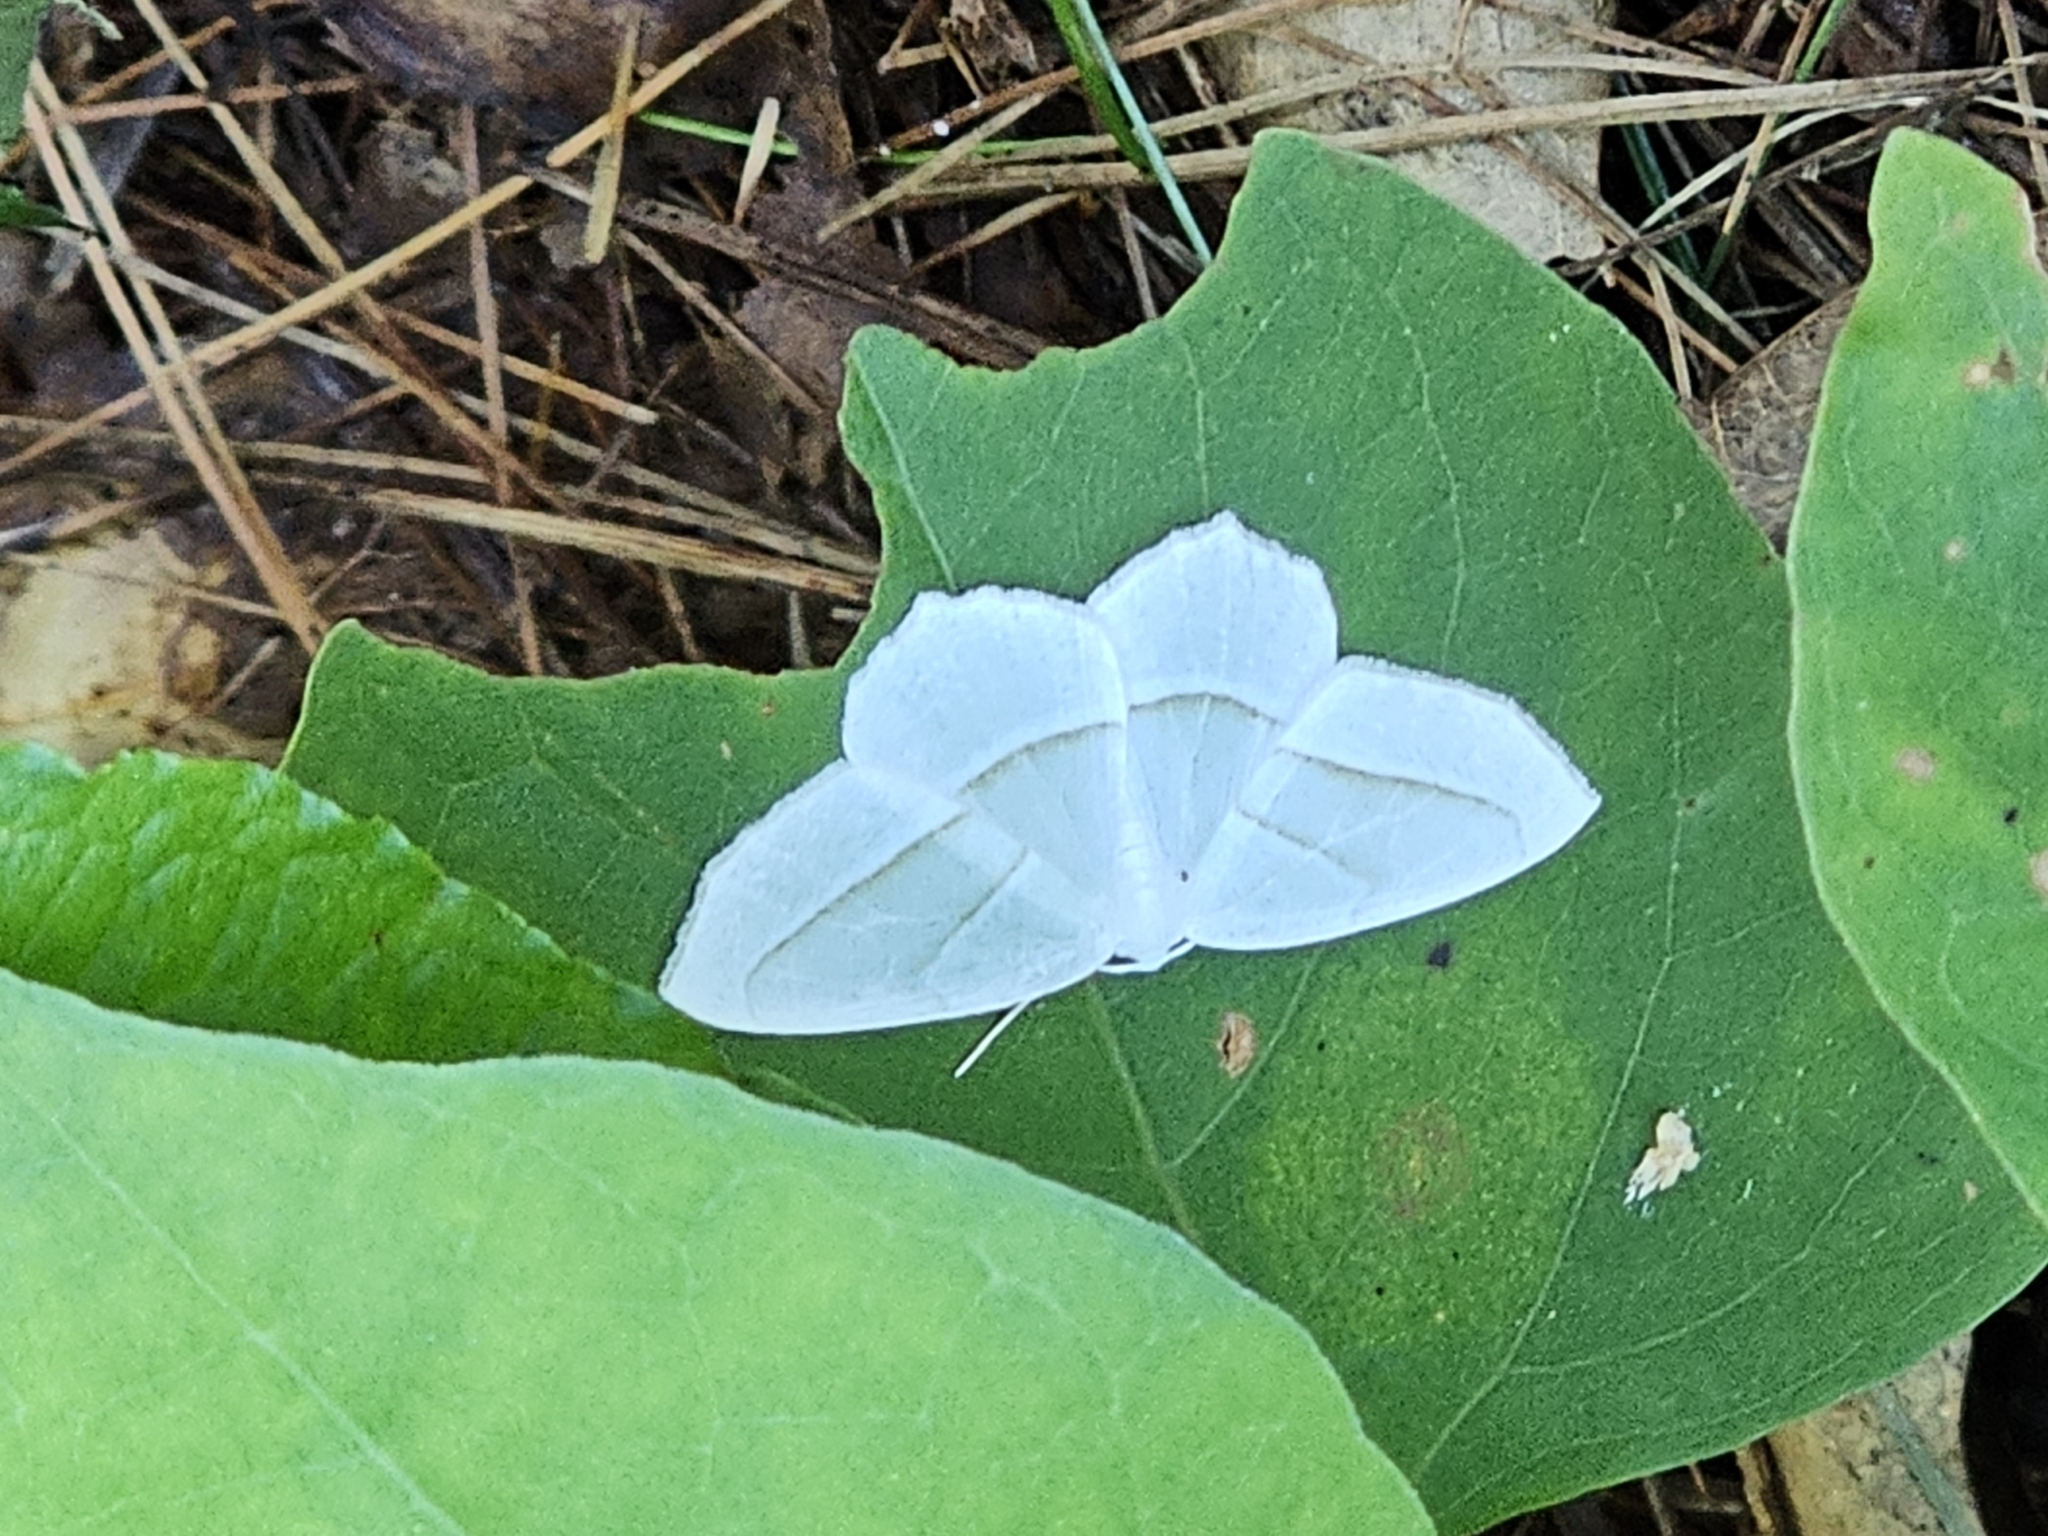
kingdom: Animalia
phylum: Arthropoda
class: Insecta
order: Lepidoptera
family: Geometridae
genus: Campaea
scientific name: Campaea perlata
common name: Fringed looper
